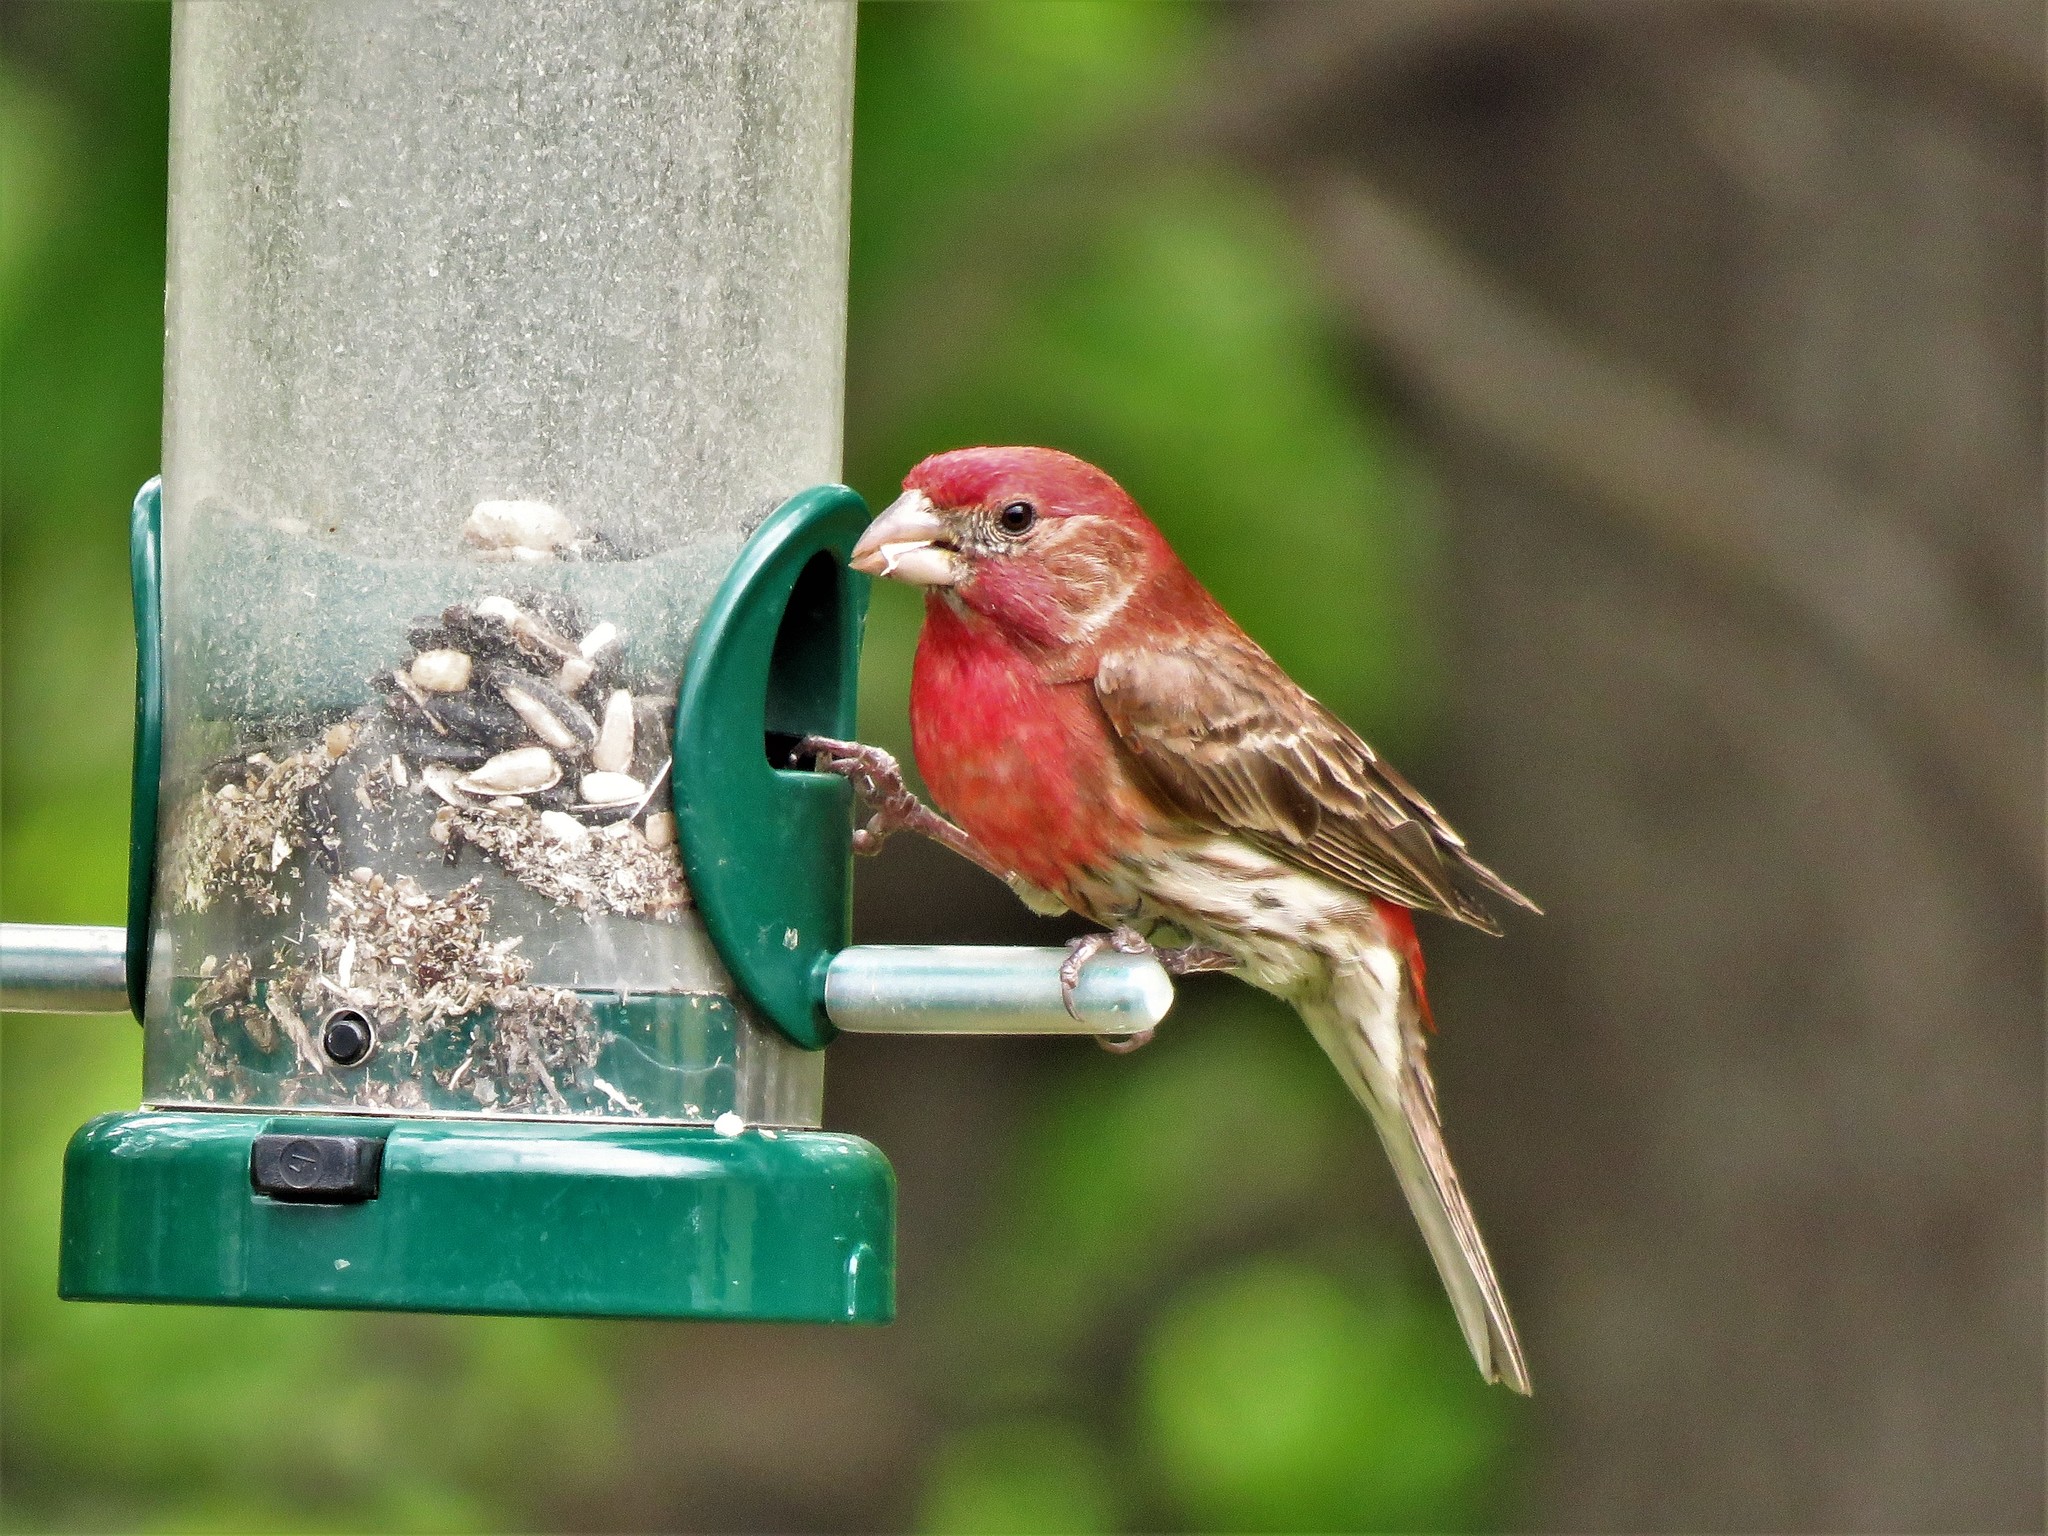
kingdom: Animalia
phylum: Chordata
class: Aves
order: Passeriformes
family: Fringillidae
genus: Haemorhous
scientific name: Haemorhous mexicanus
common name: House finch
